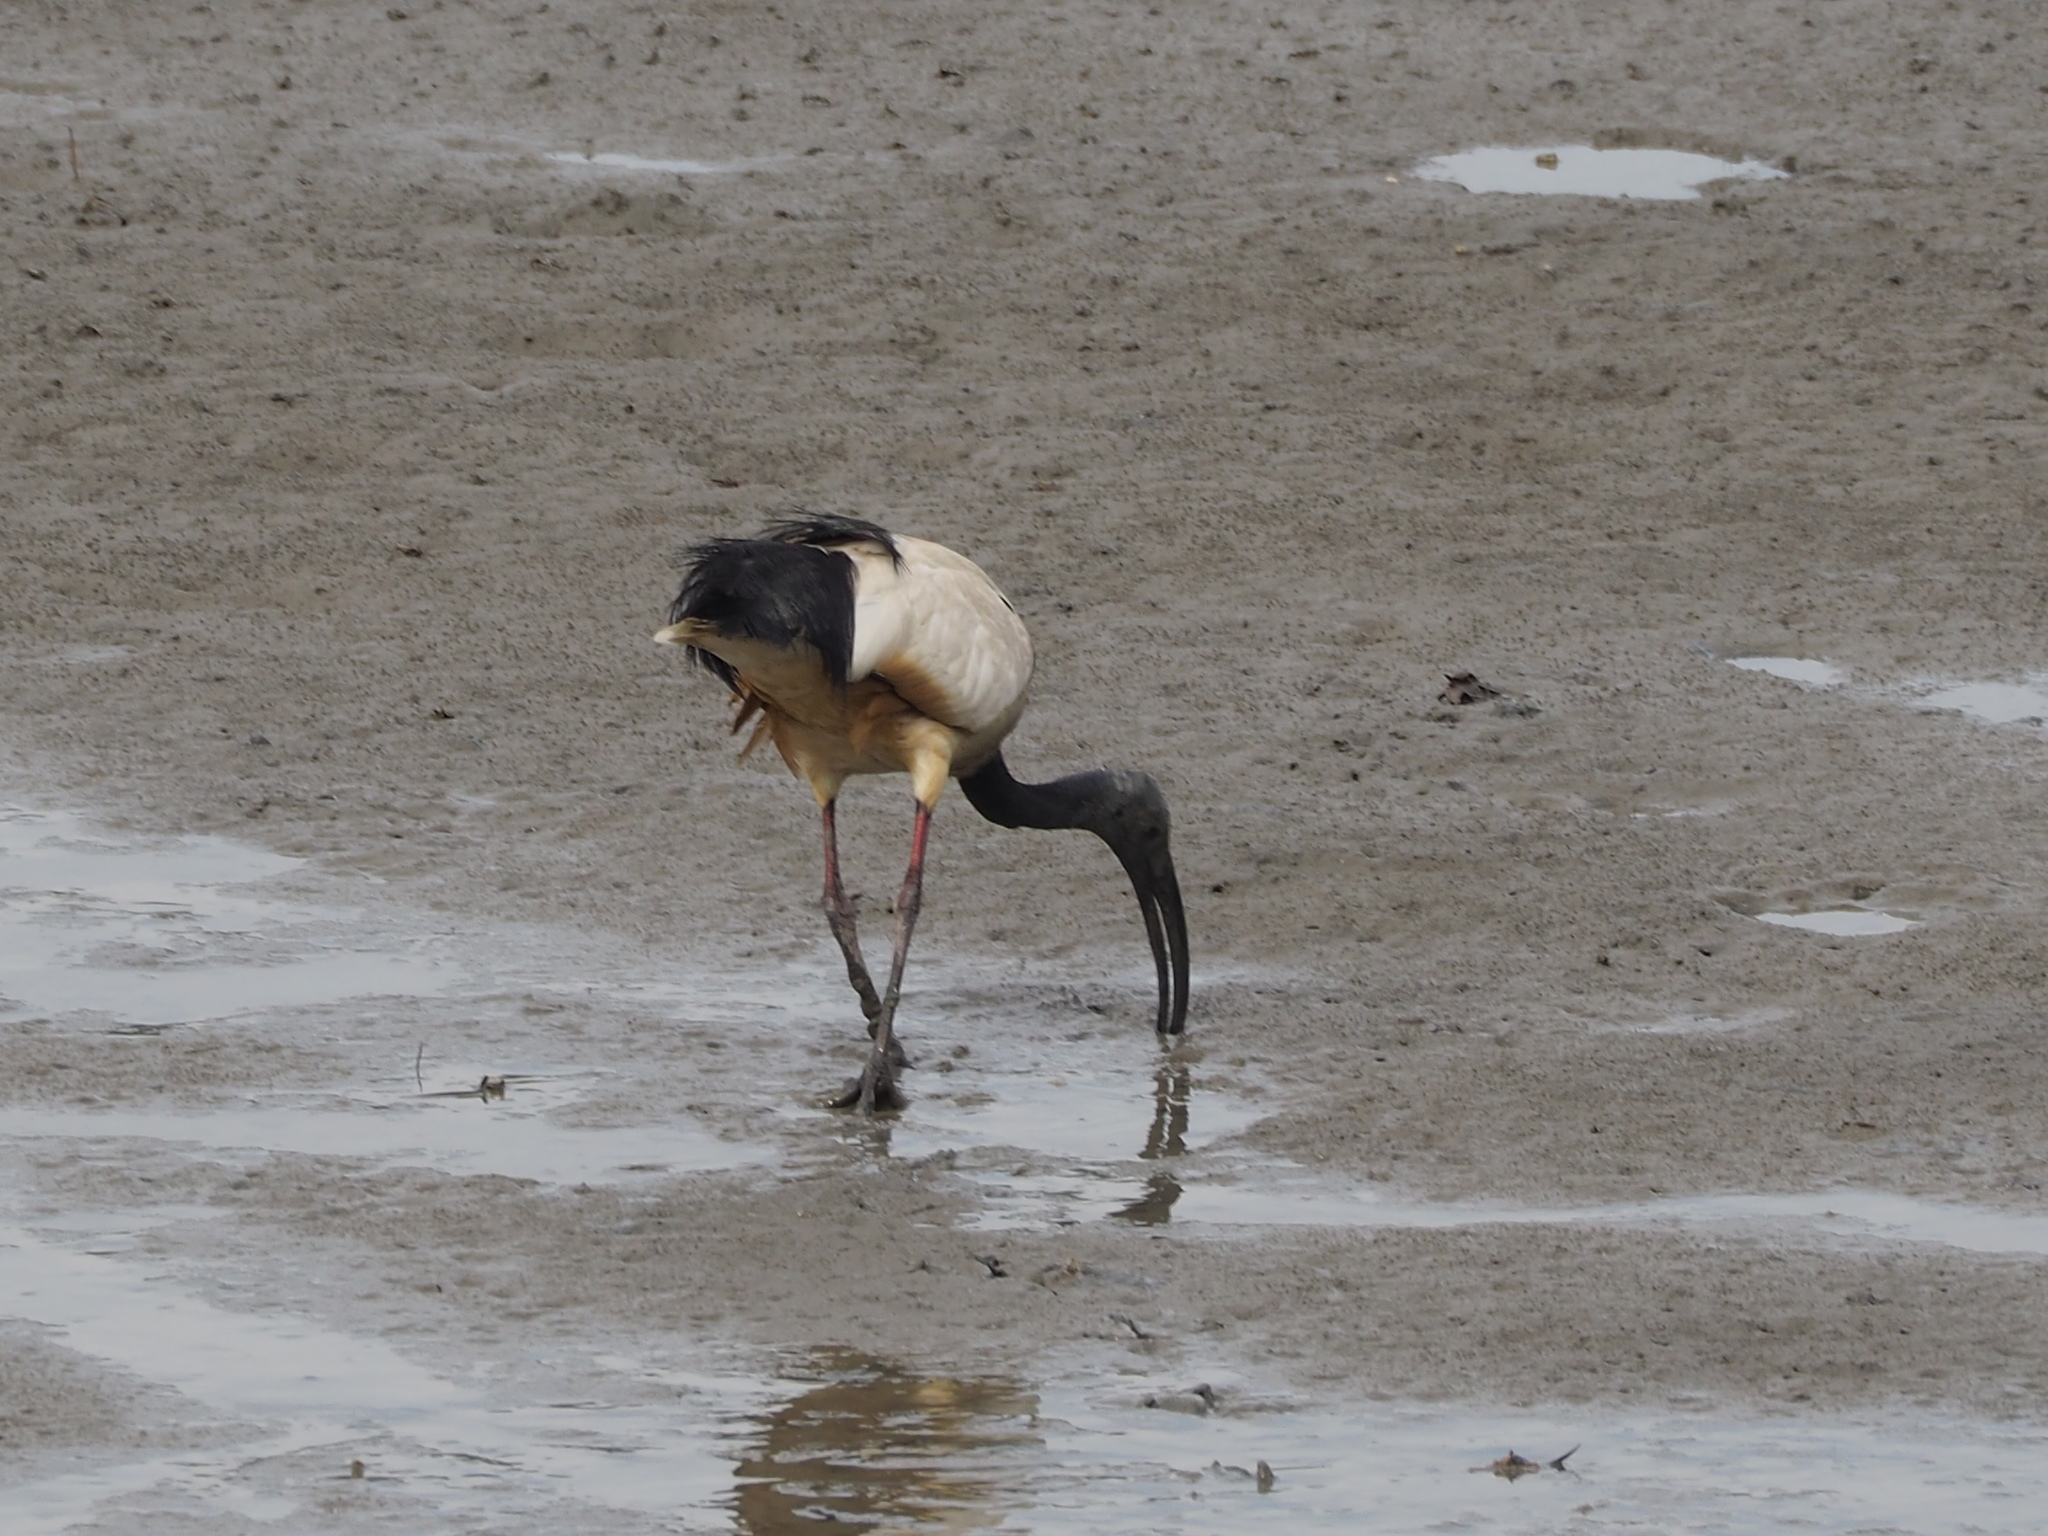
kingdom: Animalia
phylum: Chordata
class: Aves
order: Pelecaniformes
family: Threskiornithidae
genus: Threskiornis
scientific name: Threskiornis aethiopicus
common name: Sacred ibis
